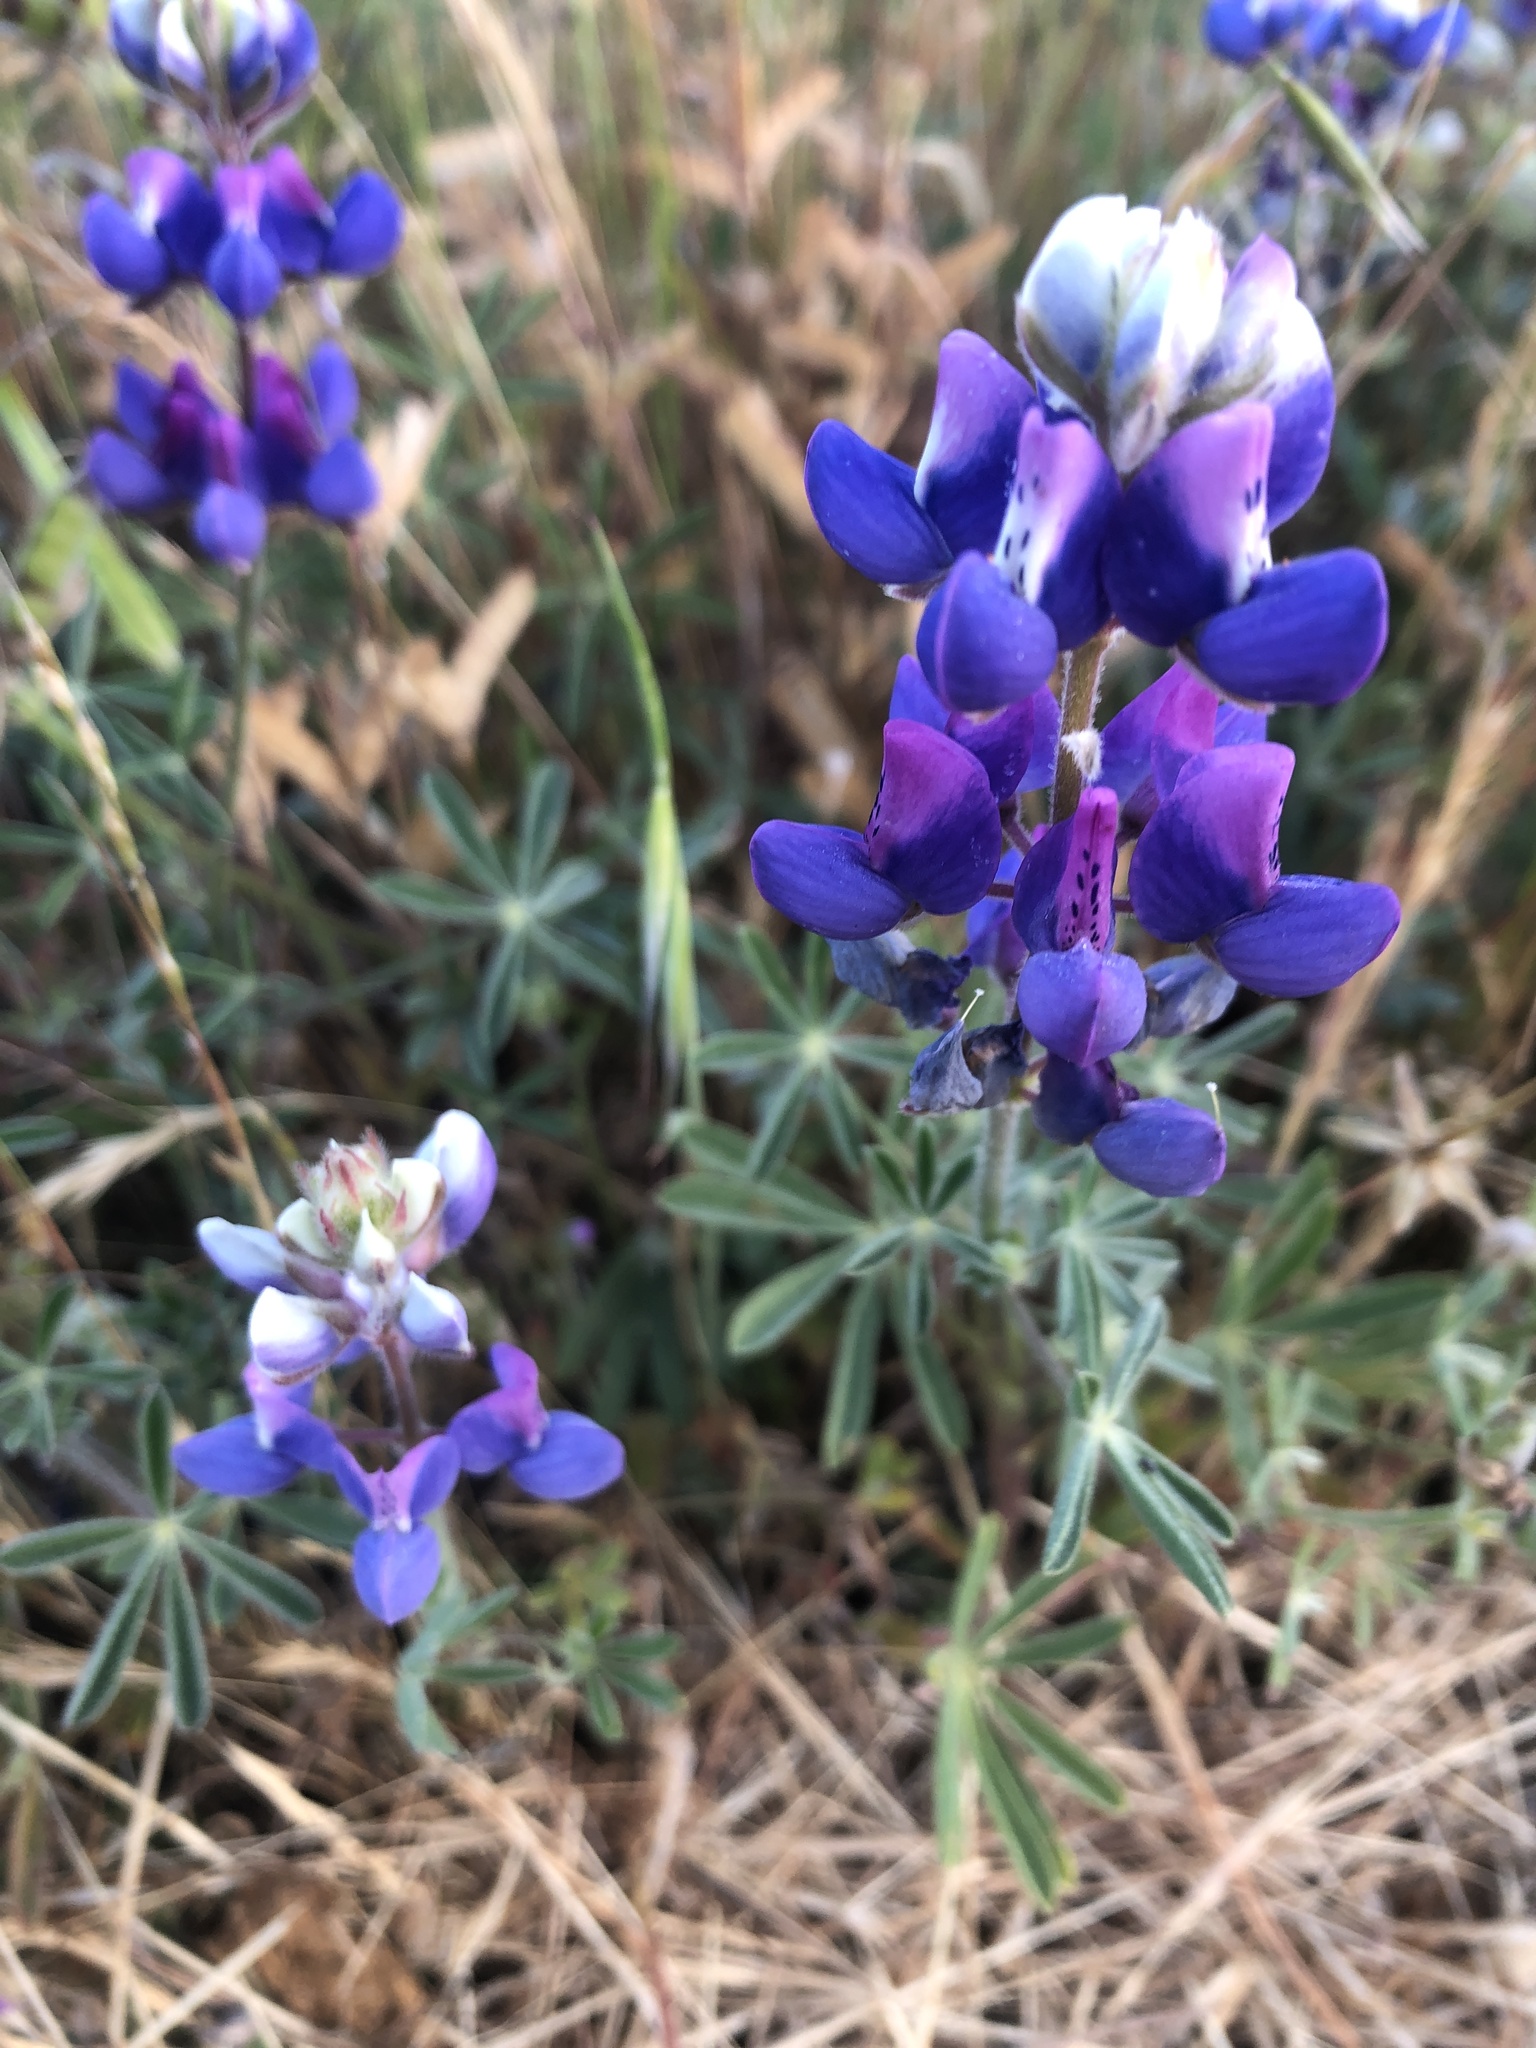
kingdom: Plantae
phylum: Tracheophyta
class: Magnoliopsida
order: Fabales
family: Fabaceae
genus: Lupinus
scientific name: Lupinus nanus
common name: Orean blue lupin
